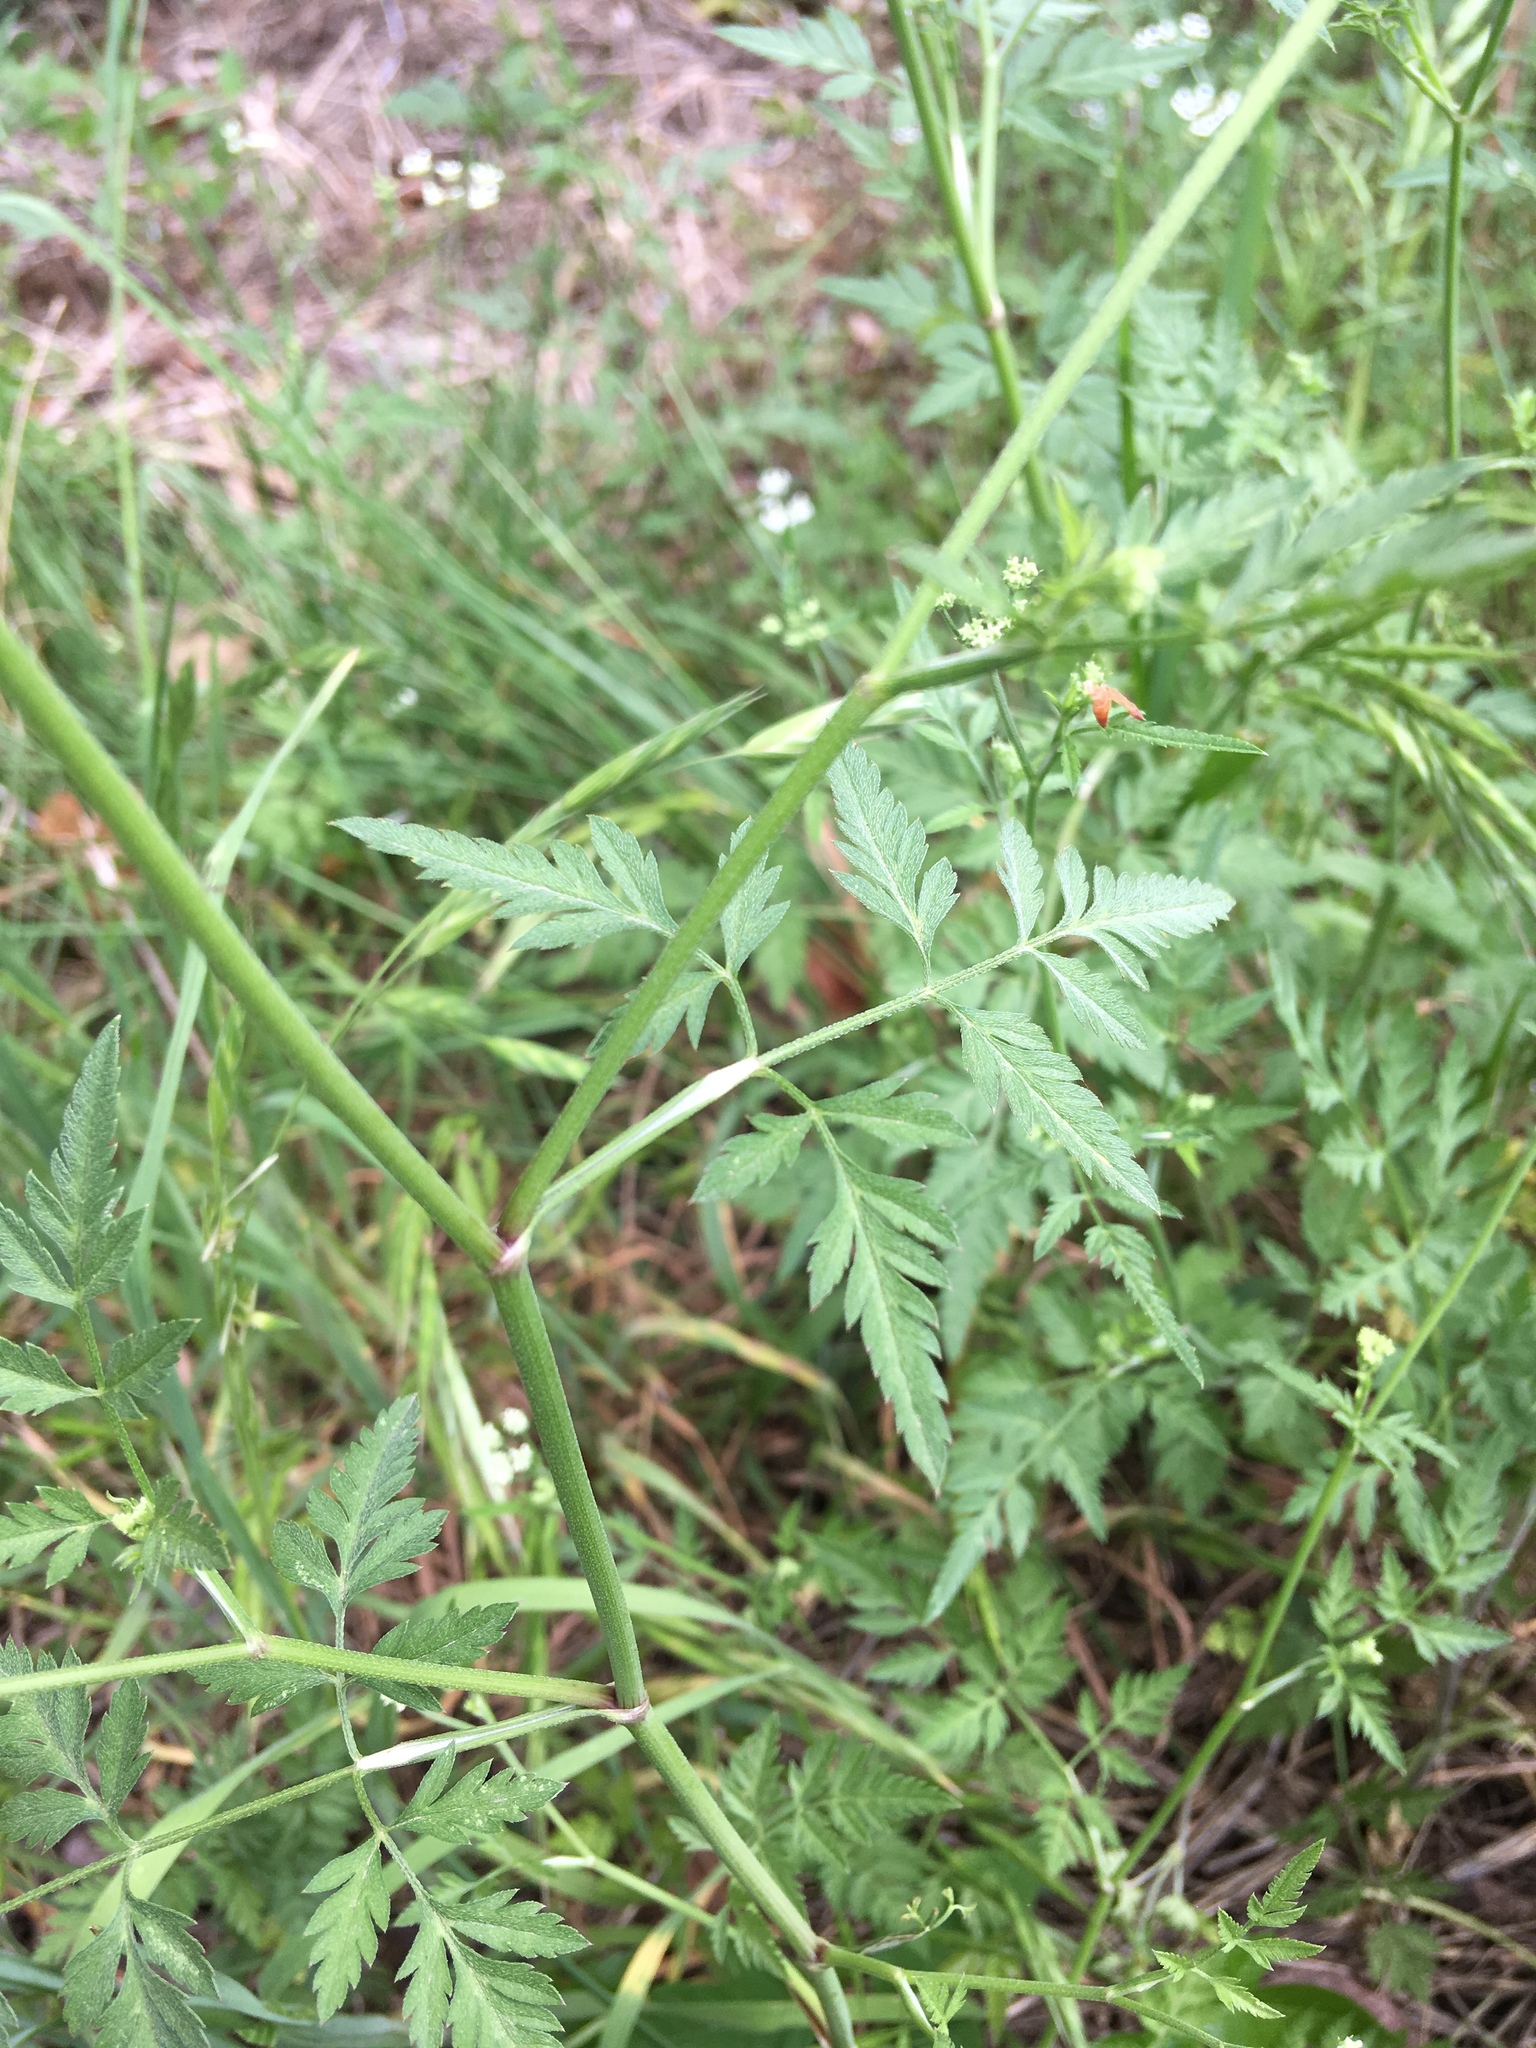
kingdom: Plantae
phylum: Tracheophyta
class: Magnoliopsida
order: Apiales
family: Apiaceae
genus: Torilis
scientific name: Torilis arvensis
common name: Spreading hedge-parsley
